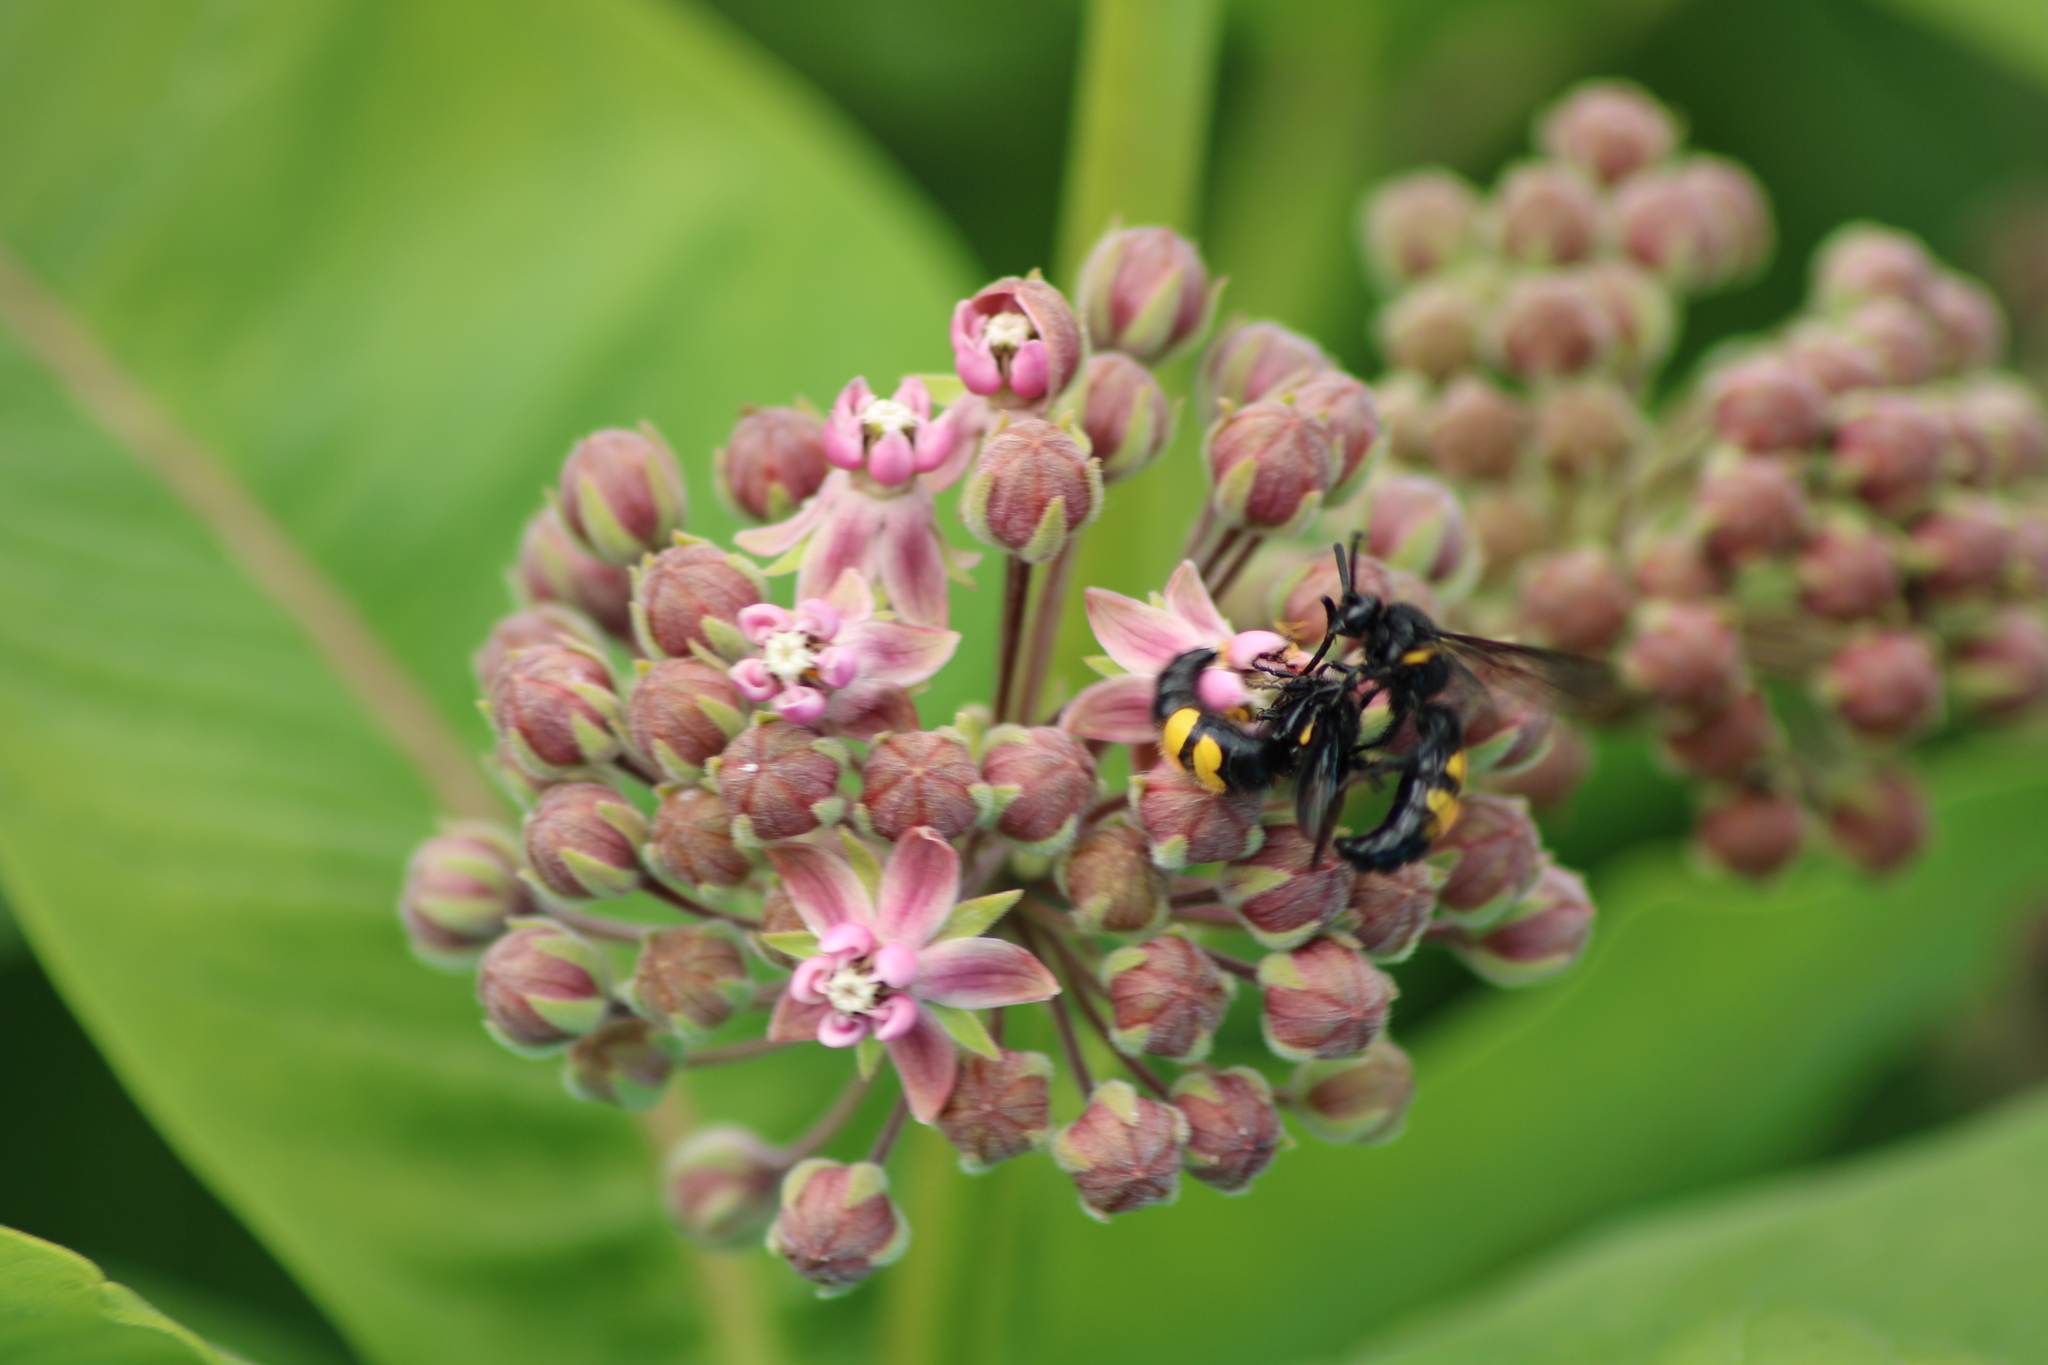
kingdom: Animalia
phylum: Arthropoda
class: Insecta
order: Hymenoptera
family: Scoliidae
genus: Scolia
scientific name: Scolia hirta
